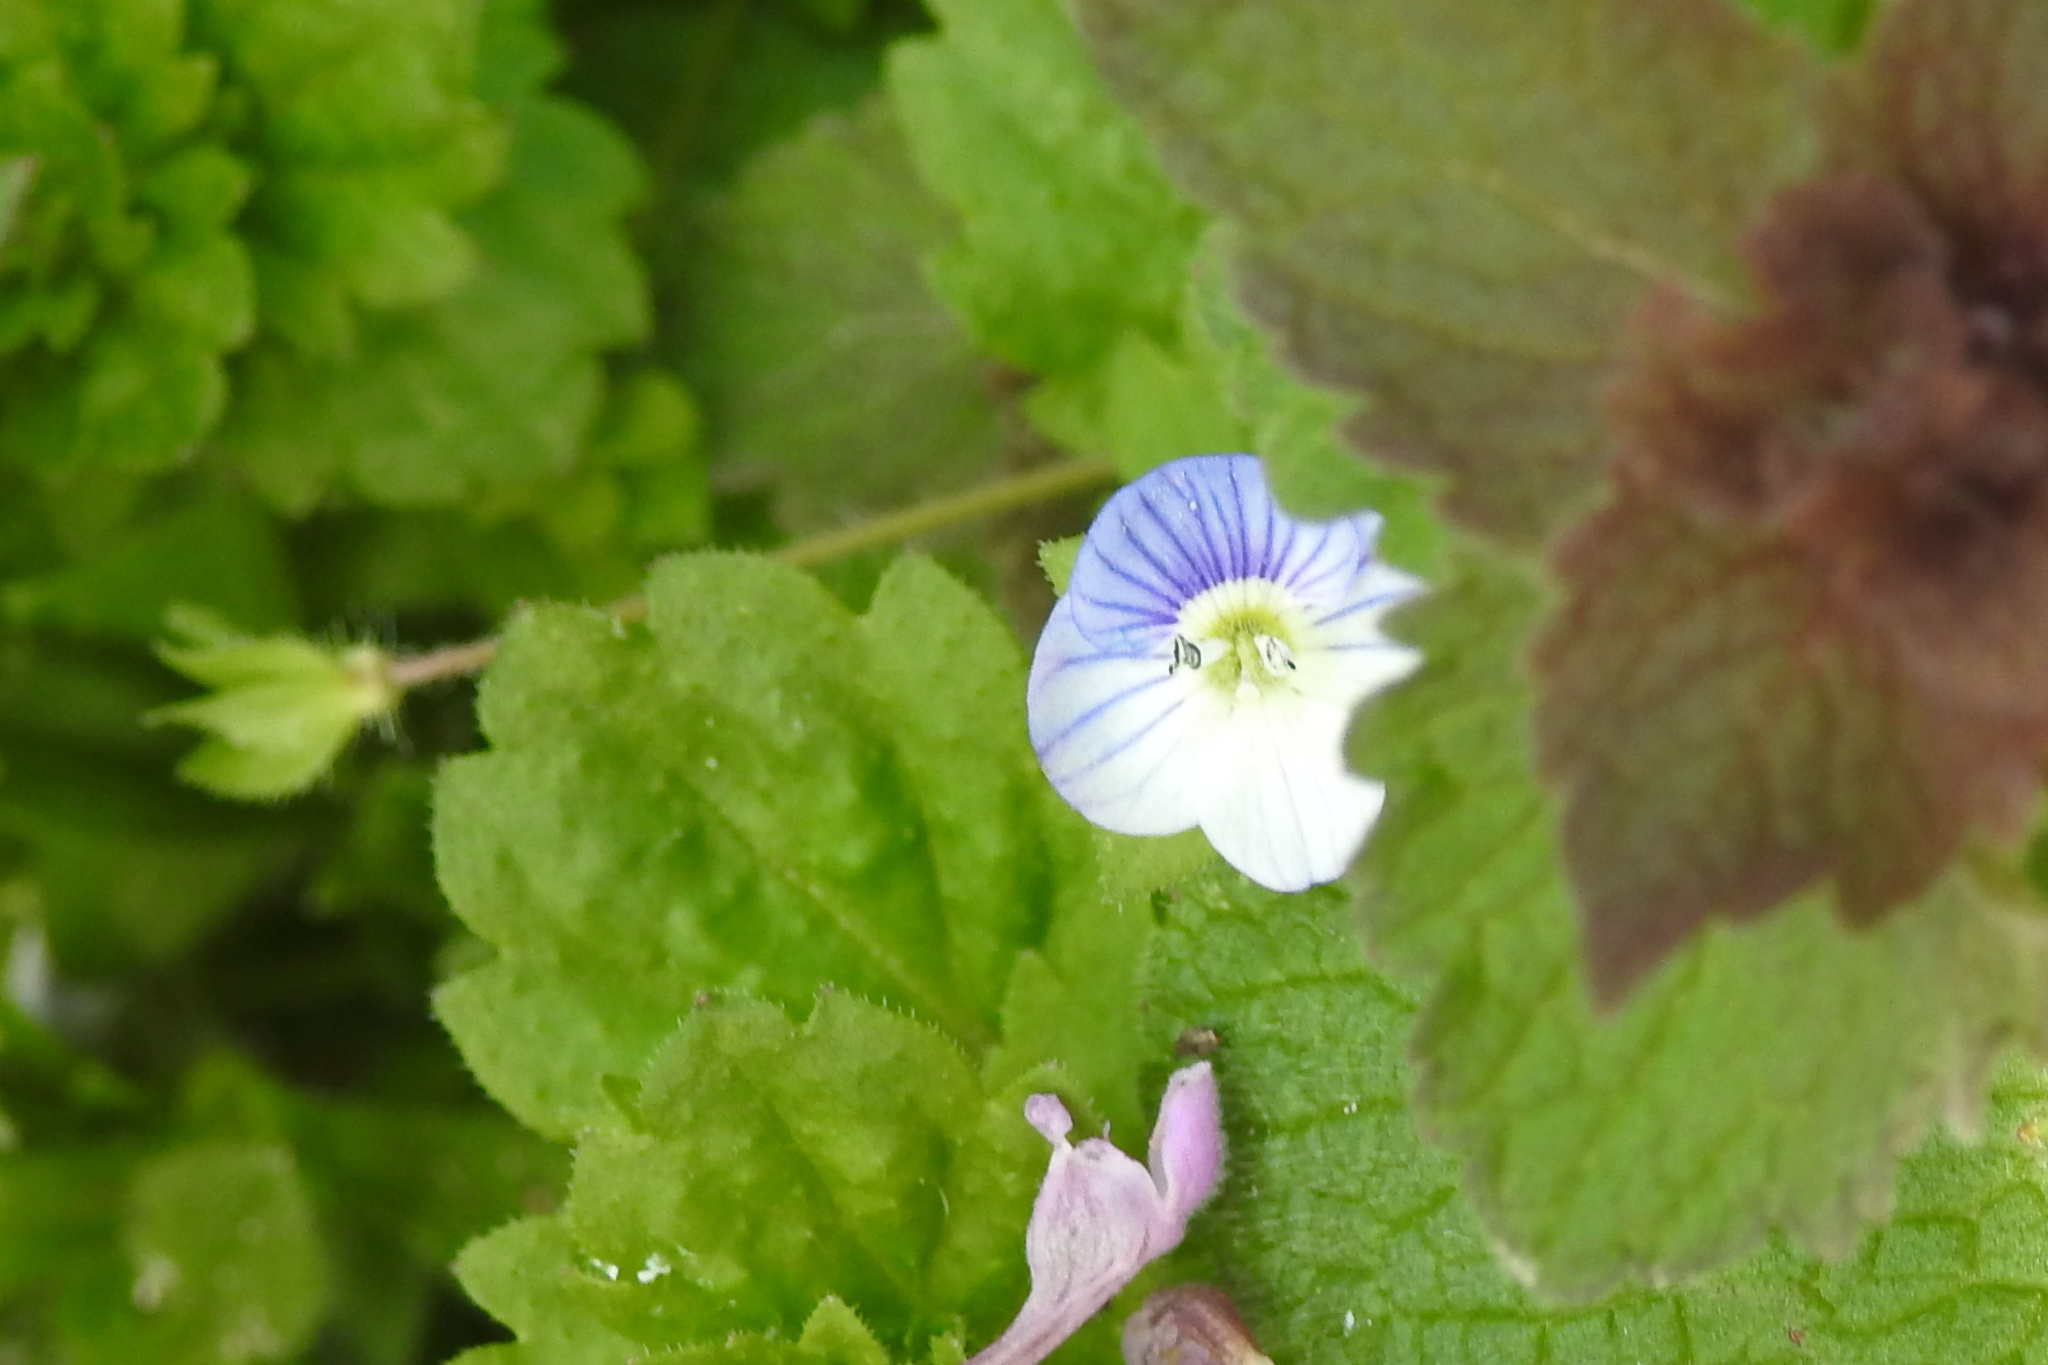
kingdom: Plantae
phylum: Tracheophyta
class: Magnoliopsida
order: Lamiales
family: Plantaginaceae
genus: Veronica
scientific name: Veronica persica
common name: Common field-speedwell
